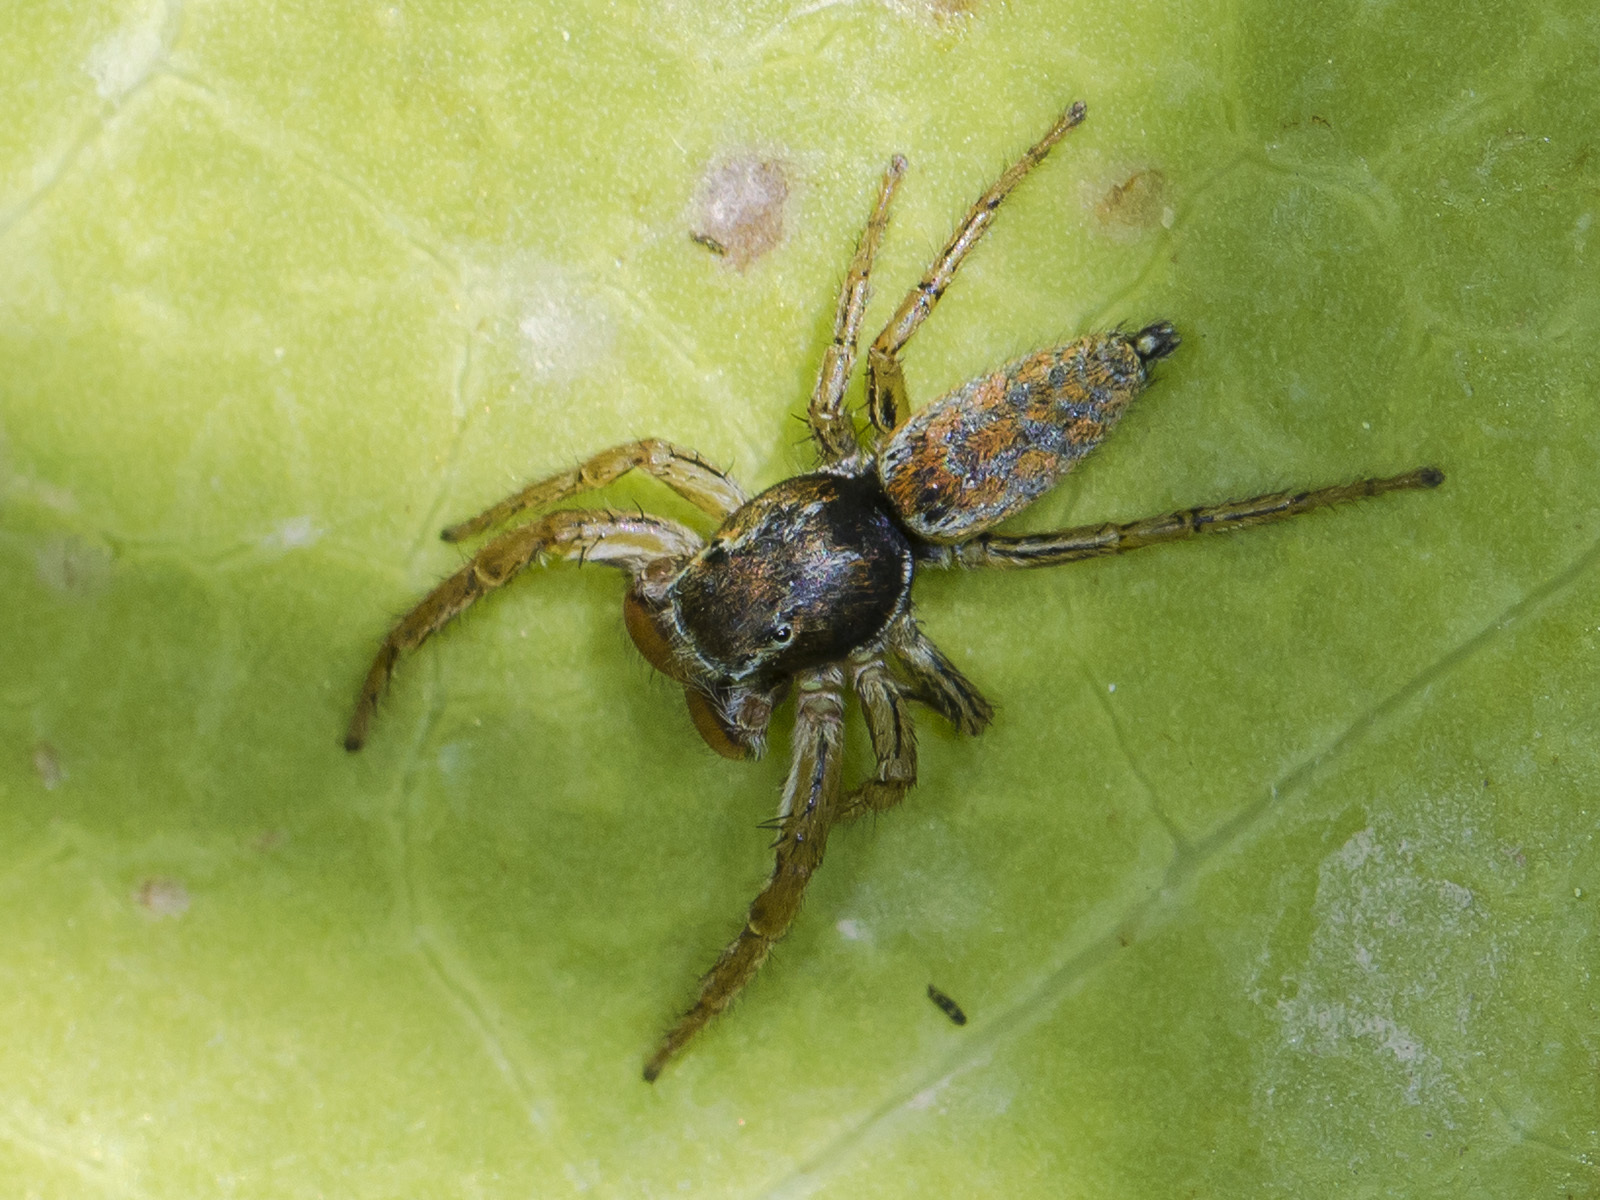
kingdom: Animalia
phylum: Arthropoda
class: Arachnida
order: Araneae
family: Salticidae
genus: Marpissa
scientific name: Marpissa pomatia
